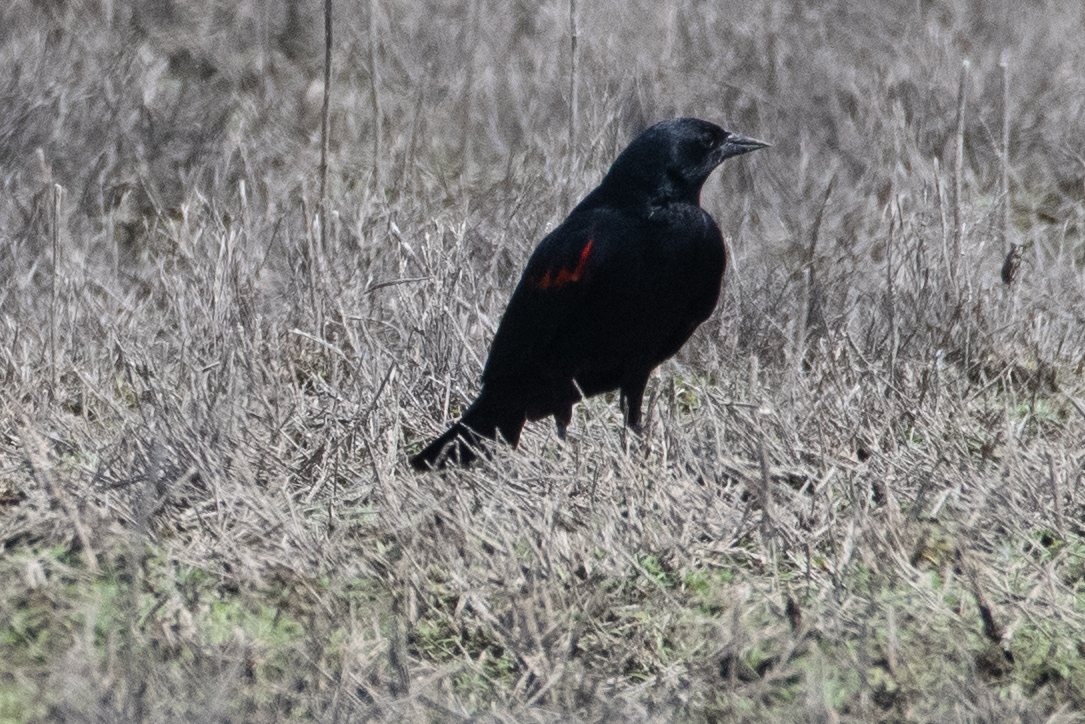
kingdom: Animalia
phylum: Chordata
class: Aves
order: Passeriformes
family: Icteridae
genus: Agelaius
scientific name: Agelaius phoeniceus
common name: Red-winged blackbird
